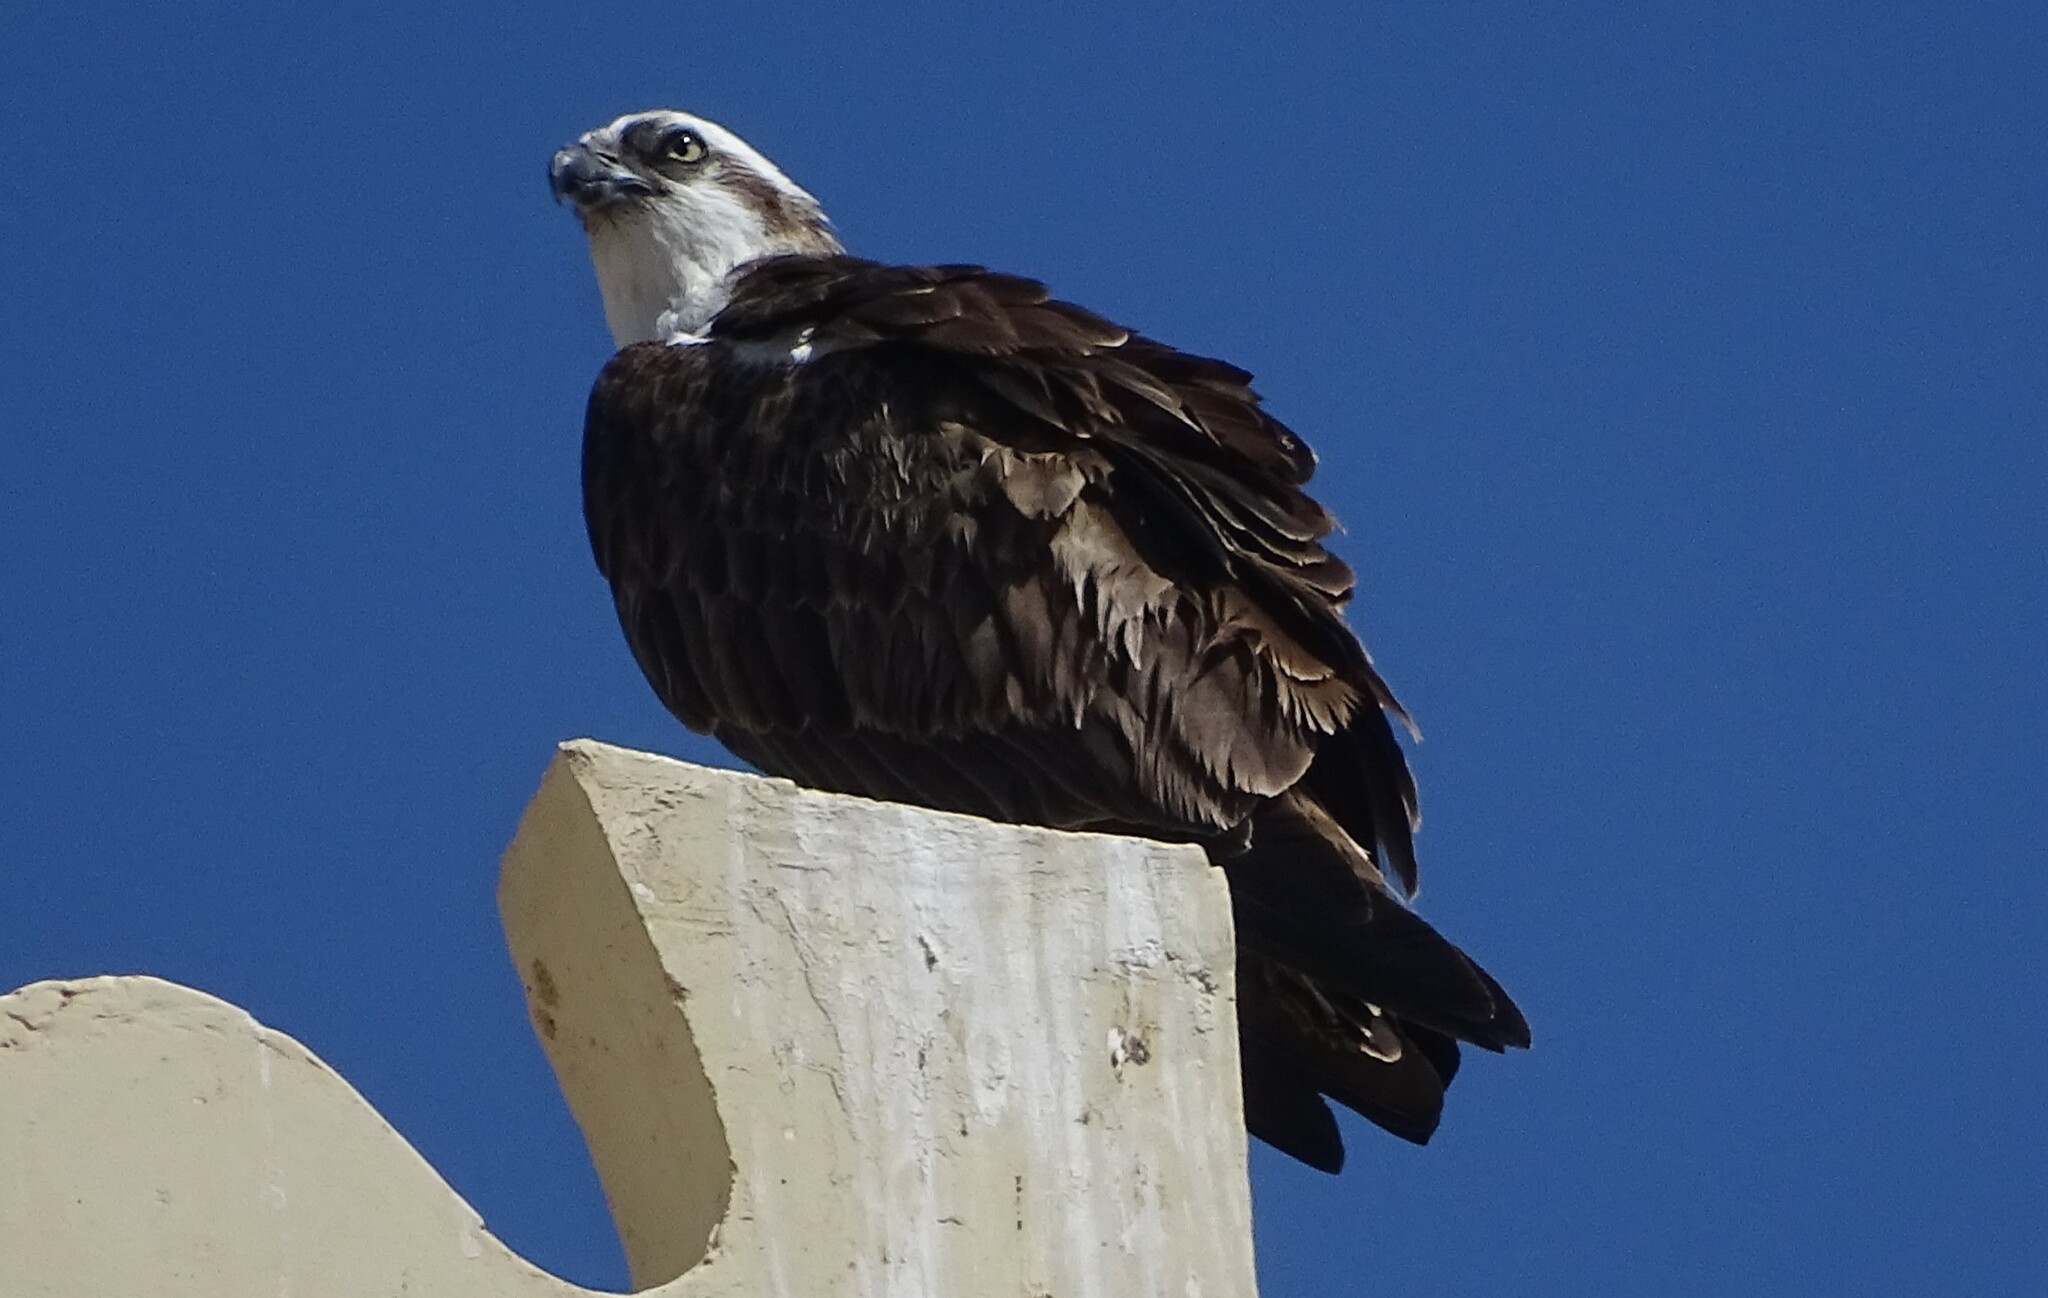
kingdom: Animalia
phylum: Chordata
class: Aves
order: Accipitriformes
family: Pandionidae
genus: Pandion
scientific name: Pandion haliaetus
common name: Osprey
